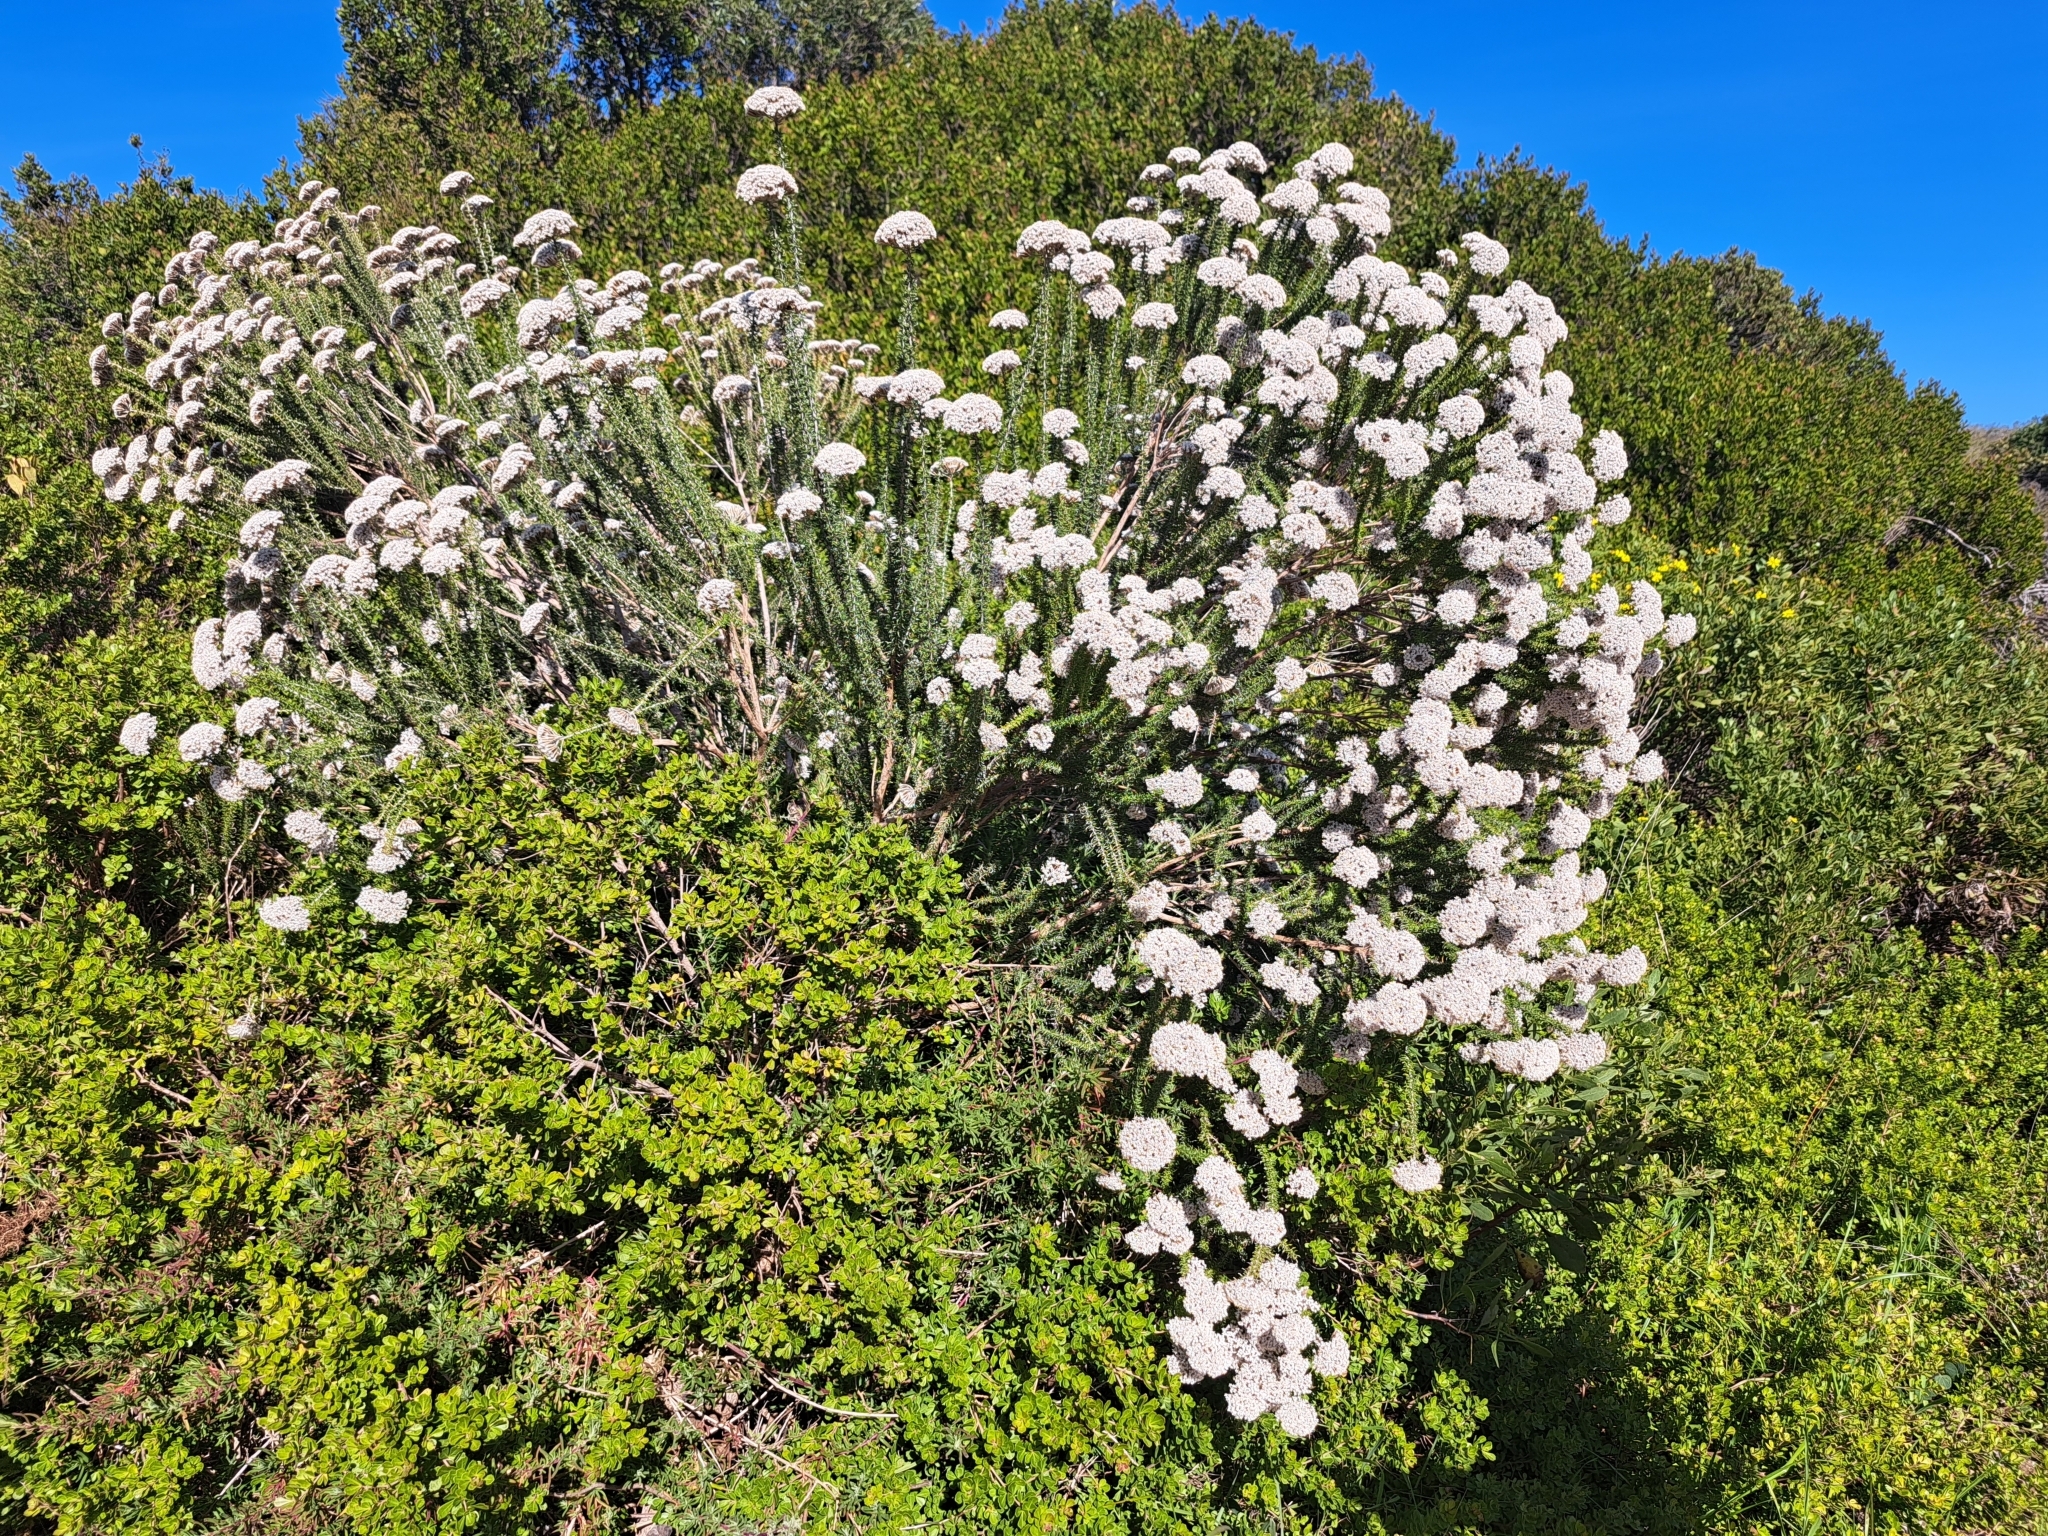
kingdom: Plantae
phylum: Tracheophyta
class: Magnoliopsida
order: Asterales
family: Asteraceae
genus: Metalasia
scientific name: Metalasia muricata
